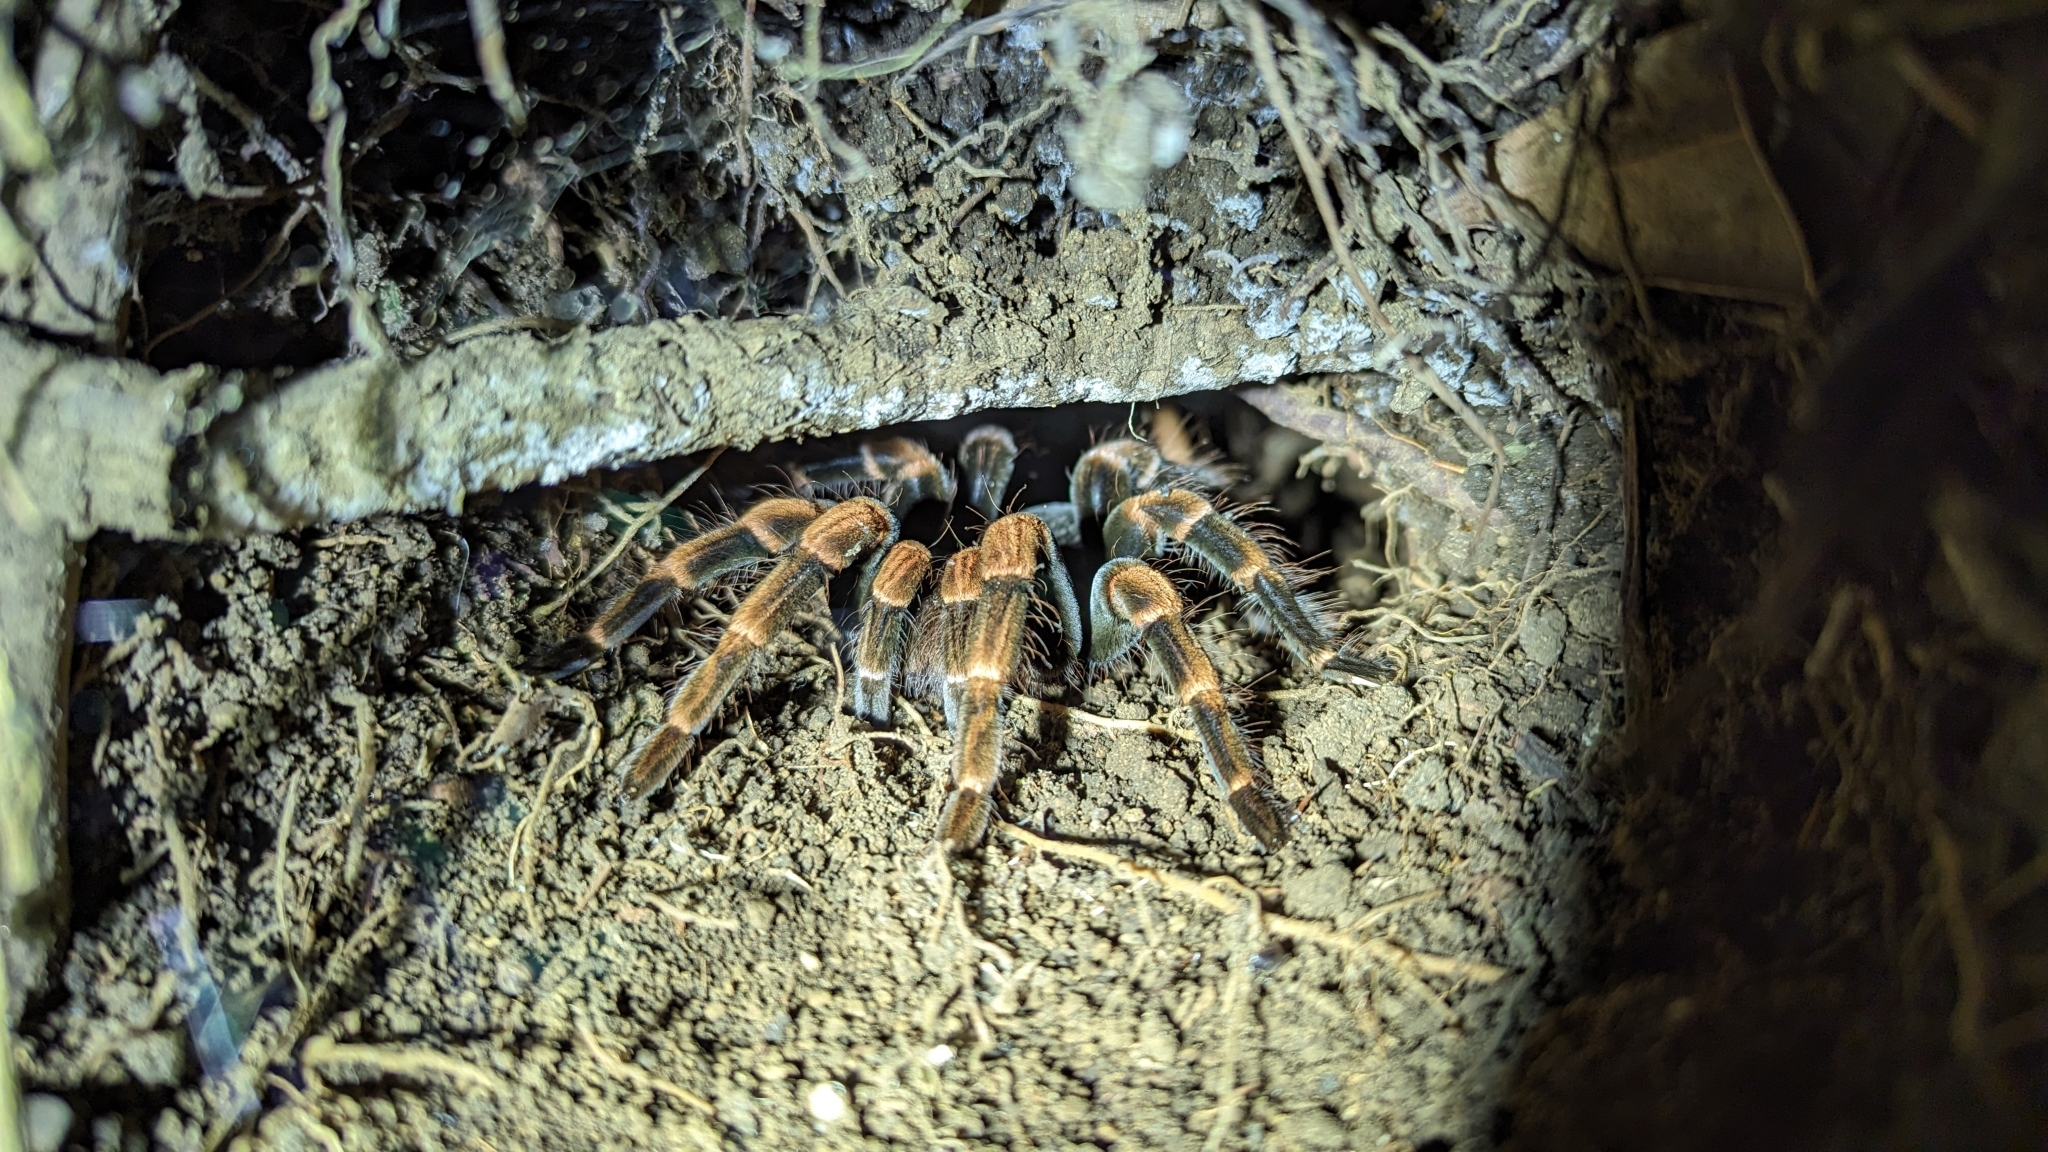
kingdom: Animalia
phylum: Arthropoda
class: Arachnida
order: Araneae
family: Theraphosidae
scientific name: Theraphosidae
